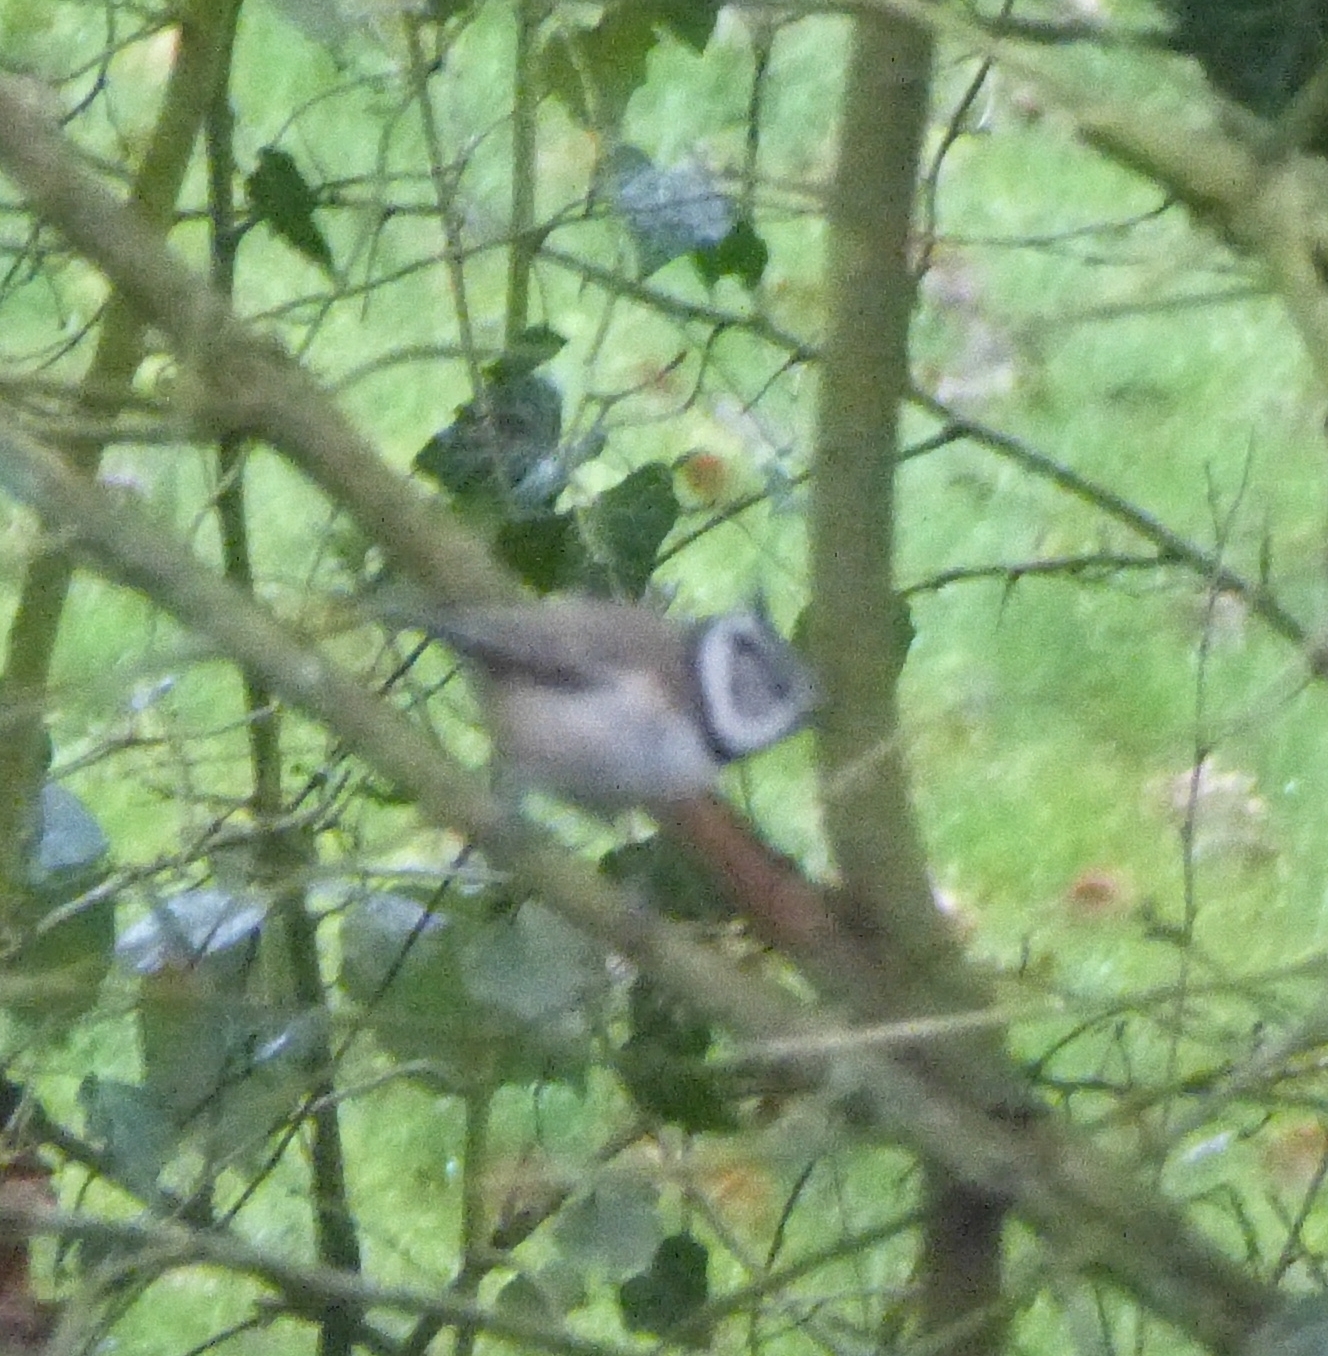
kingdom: Animalia
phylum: Chordata
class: Aves
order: Passeriformes
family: Paridae
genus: Lophophanes
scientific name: Lophophanes cristatus
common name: European crested tit
